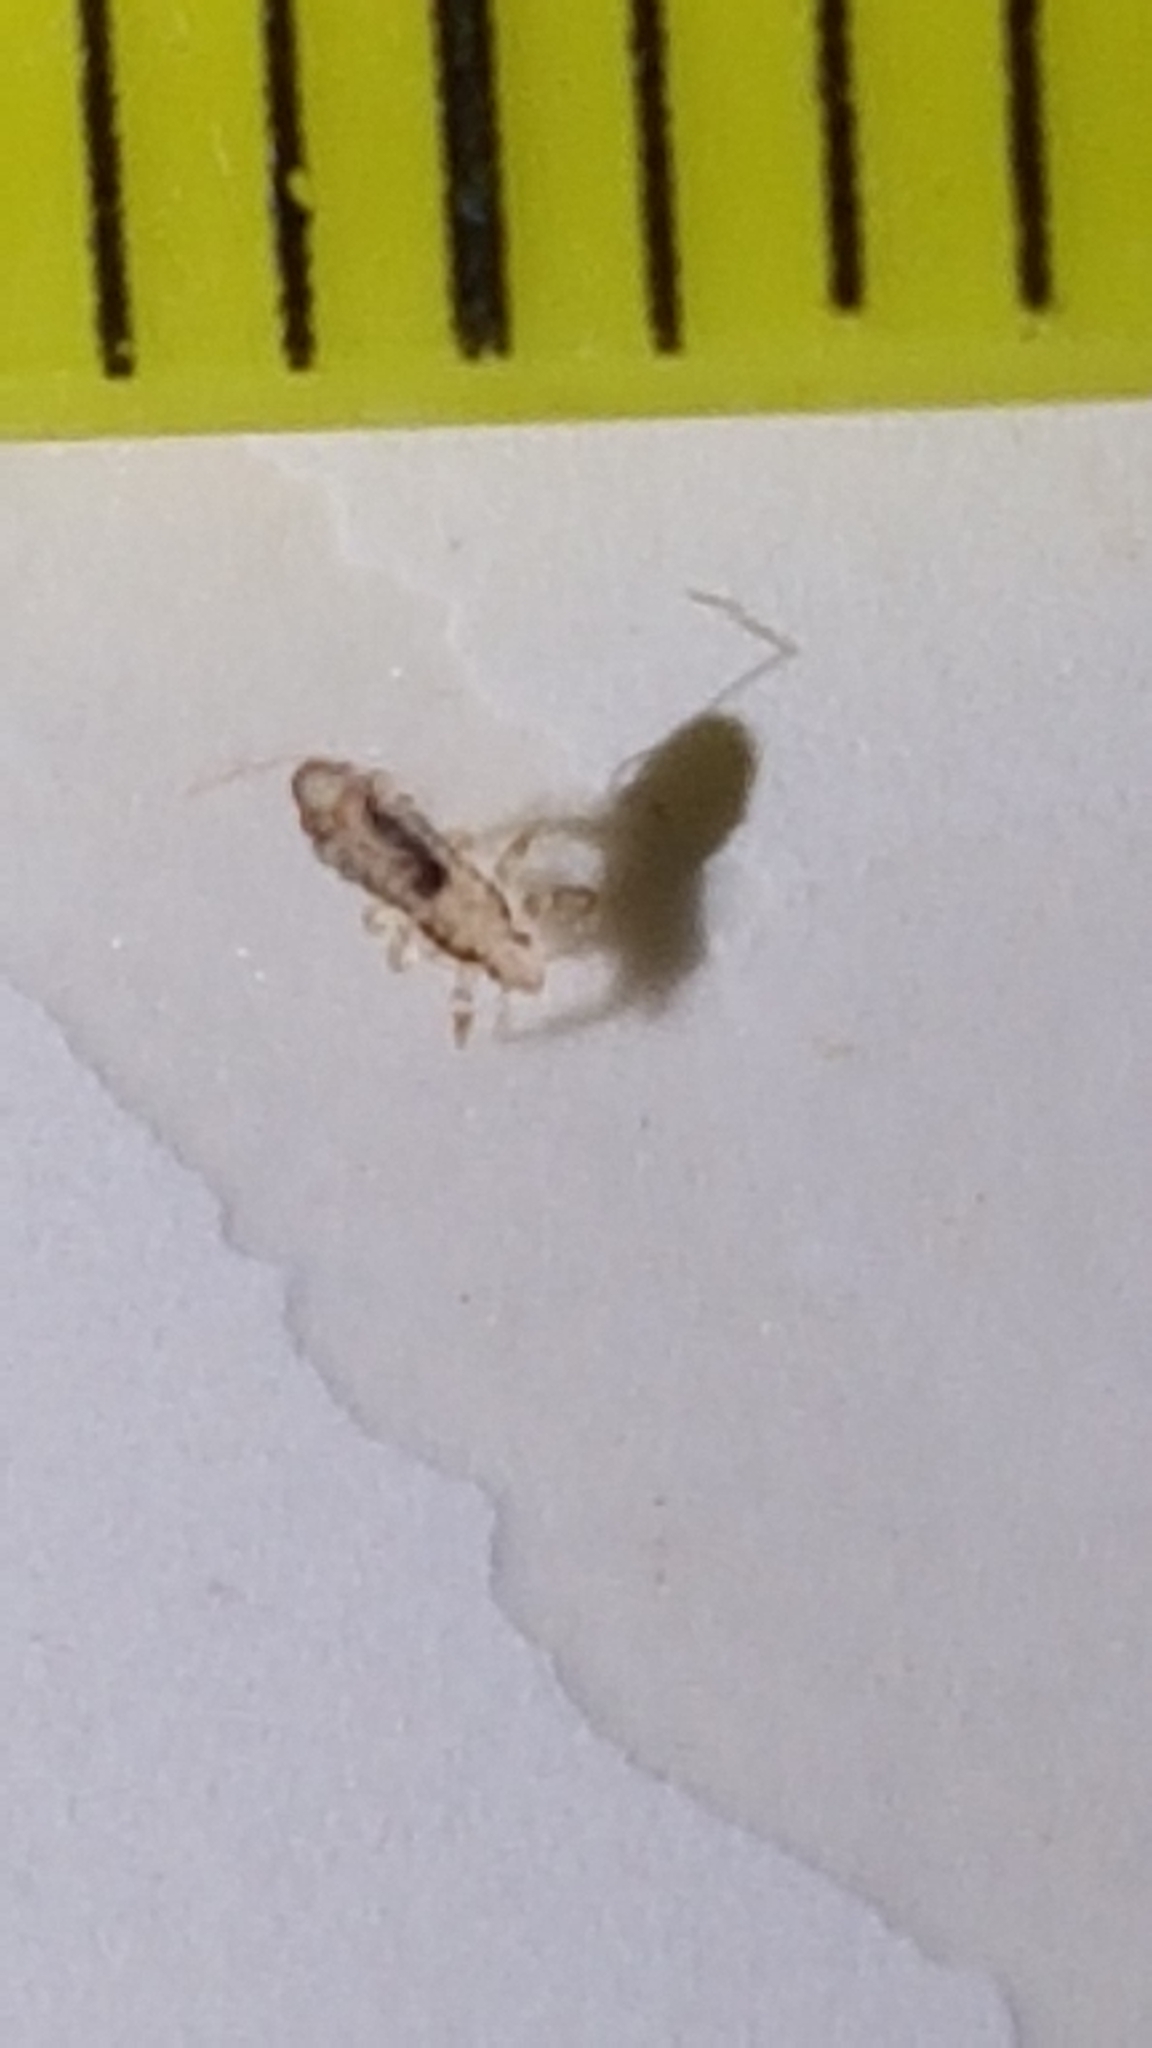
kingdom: Animalia
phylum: Arthropoda
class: Insecta
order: Psocodea
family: Pediculidae
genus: Pediculus
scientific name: Pediculus humanus
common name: Body louse
